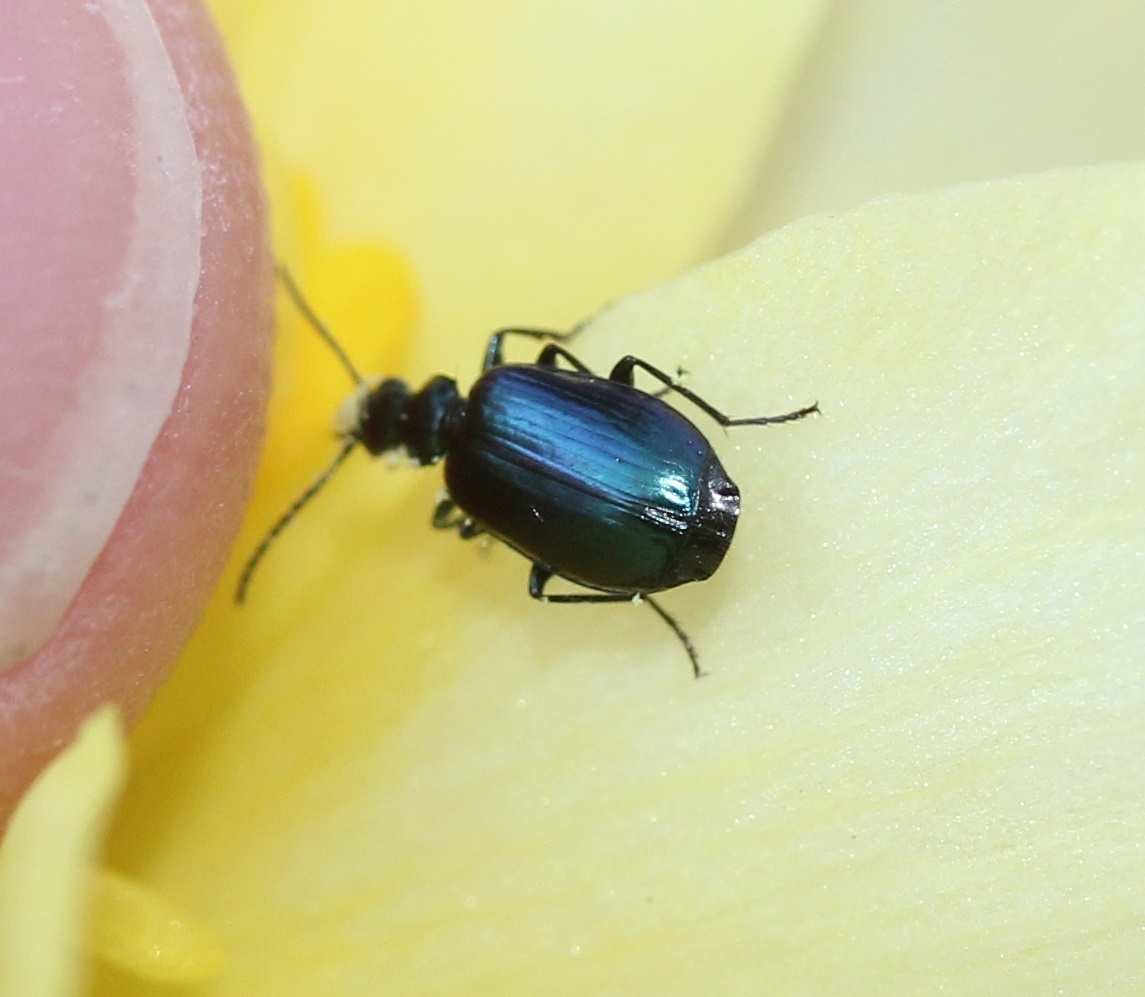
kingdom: Animalia
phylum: Arthropoda
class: Insecta
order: Coleoptera
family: Carabidae
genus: Lebia
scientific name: Lebia viridis
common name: Flower lebia beetle
